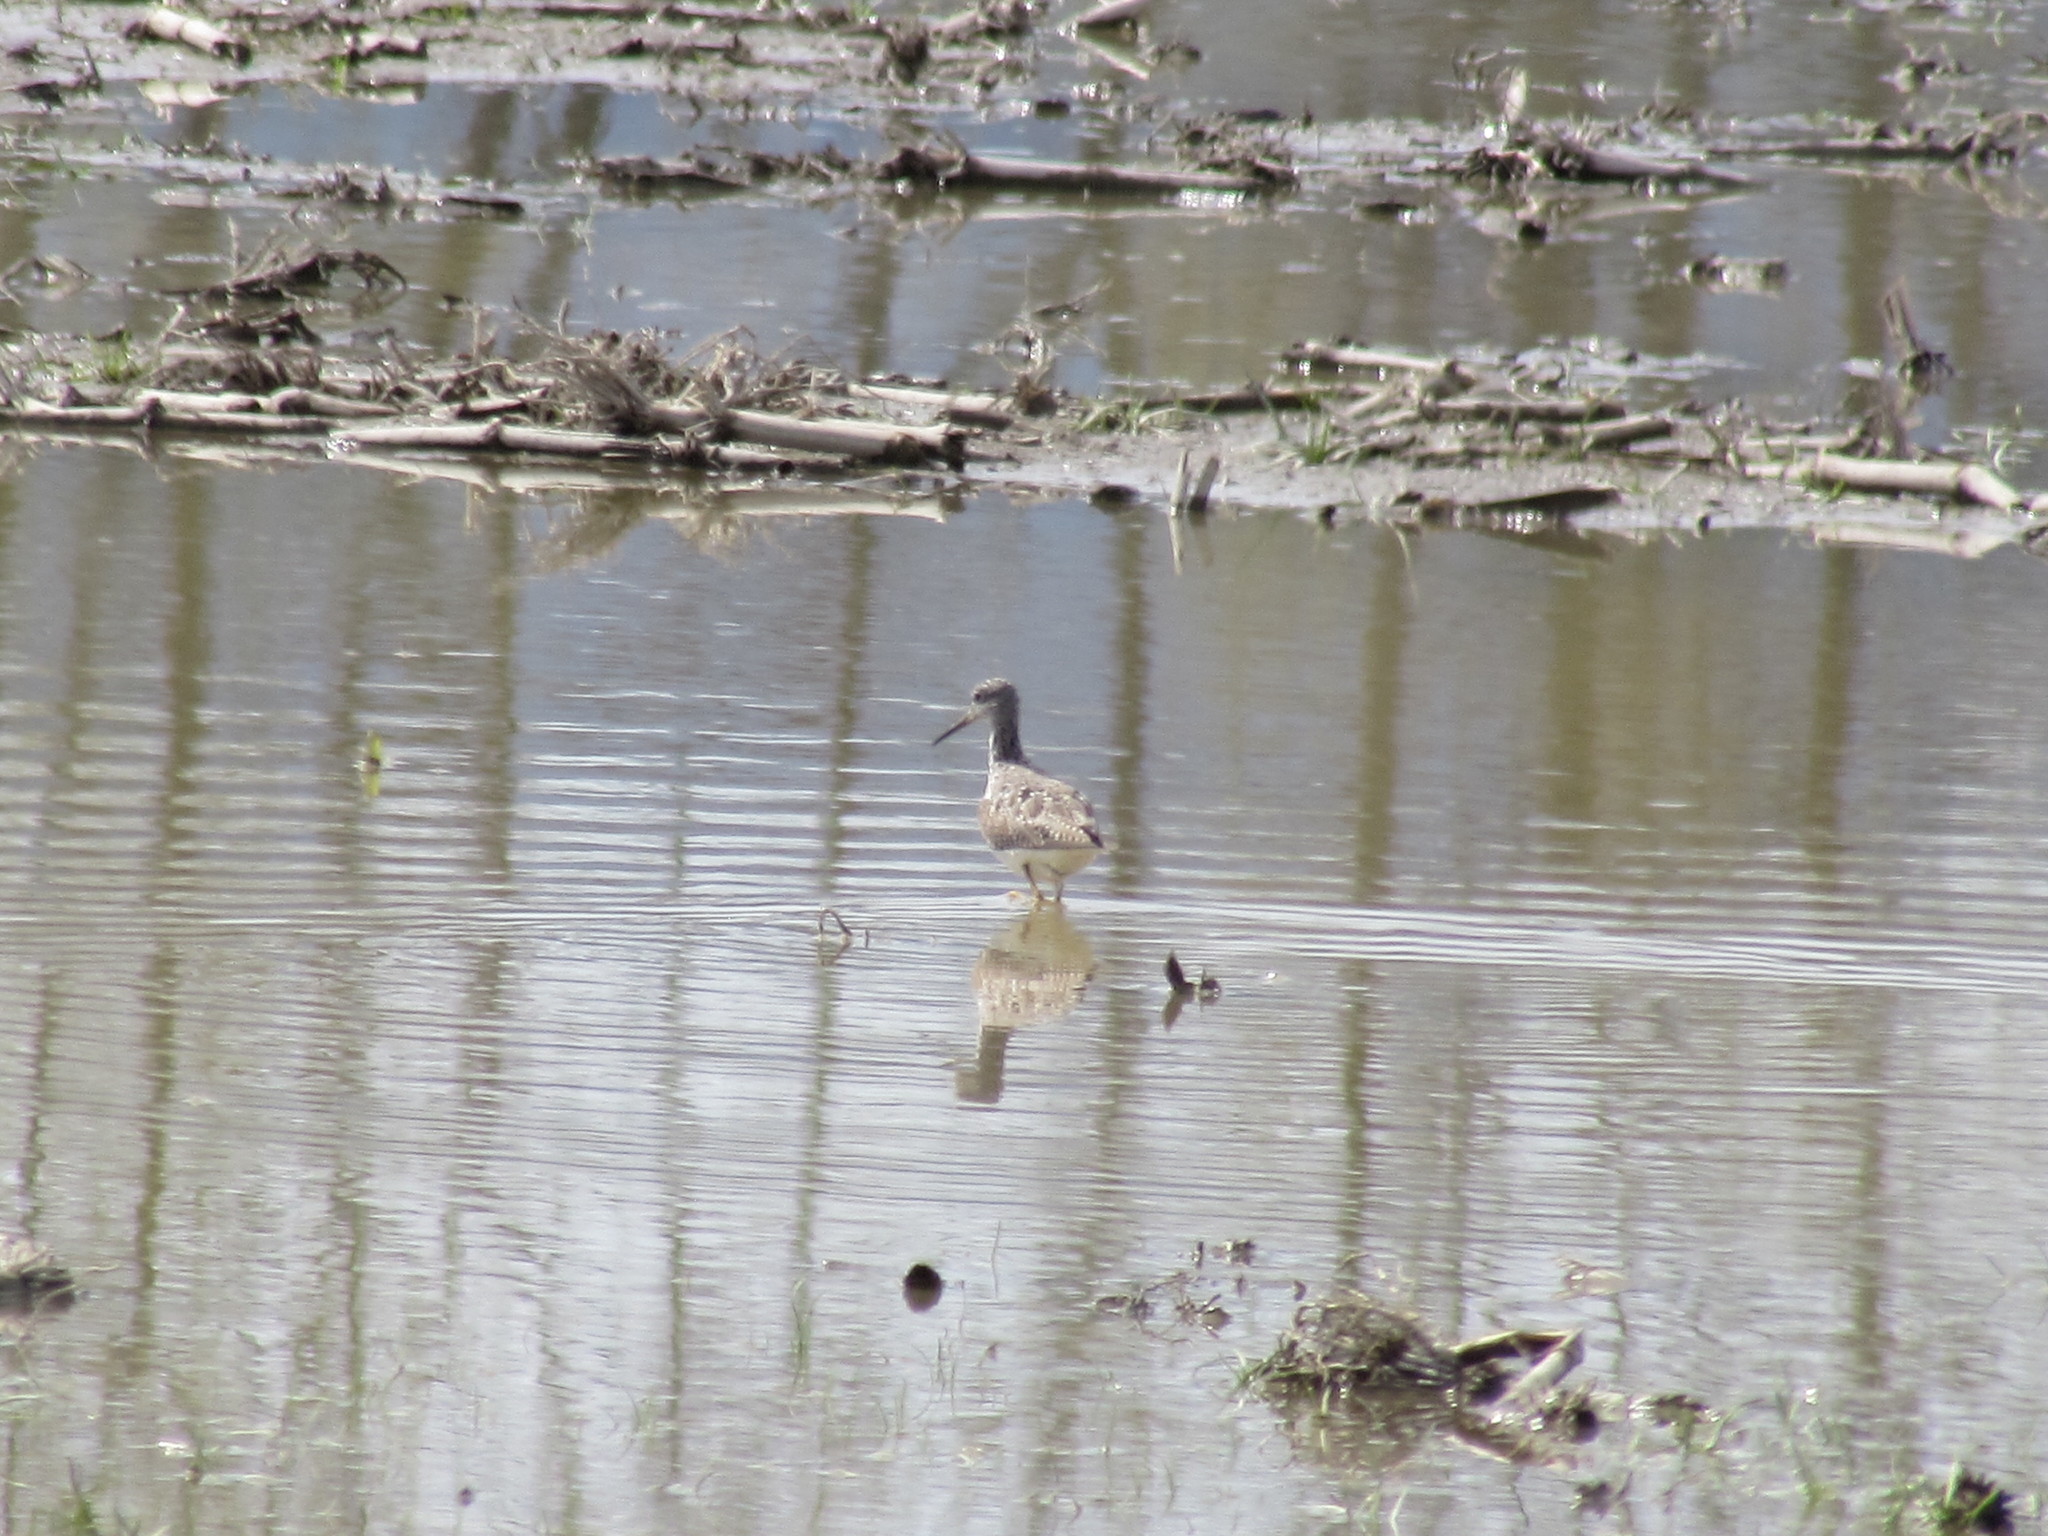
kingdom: Animalia
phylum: Chordata
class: Aves
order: Charadriiformes
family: Scolopacidae
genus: Tringa
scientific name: Tringa melanoleuca
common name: Greater yellowlegs
